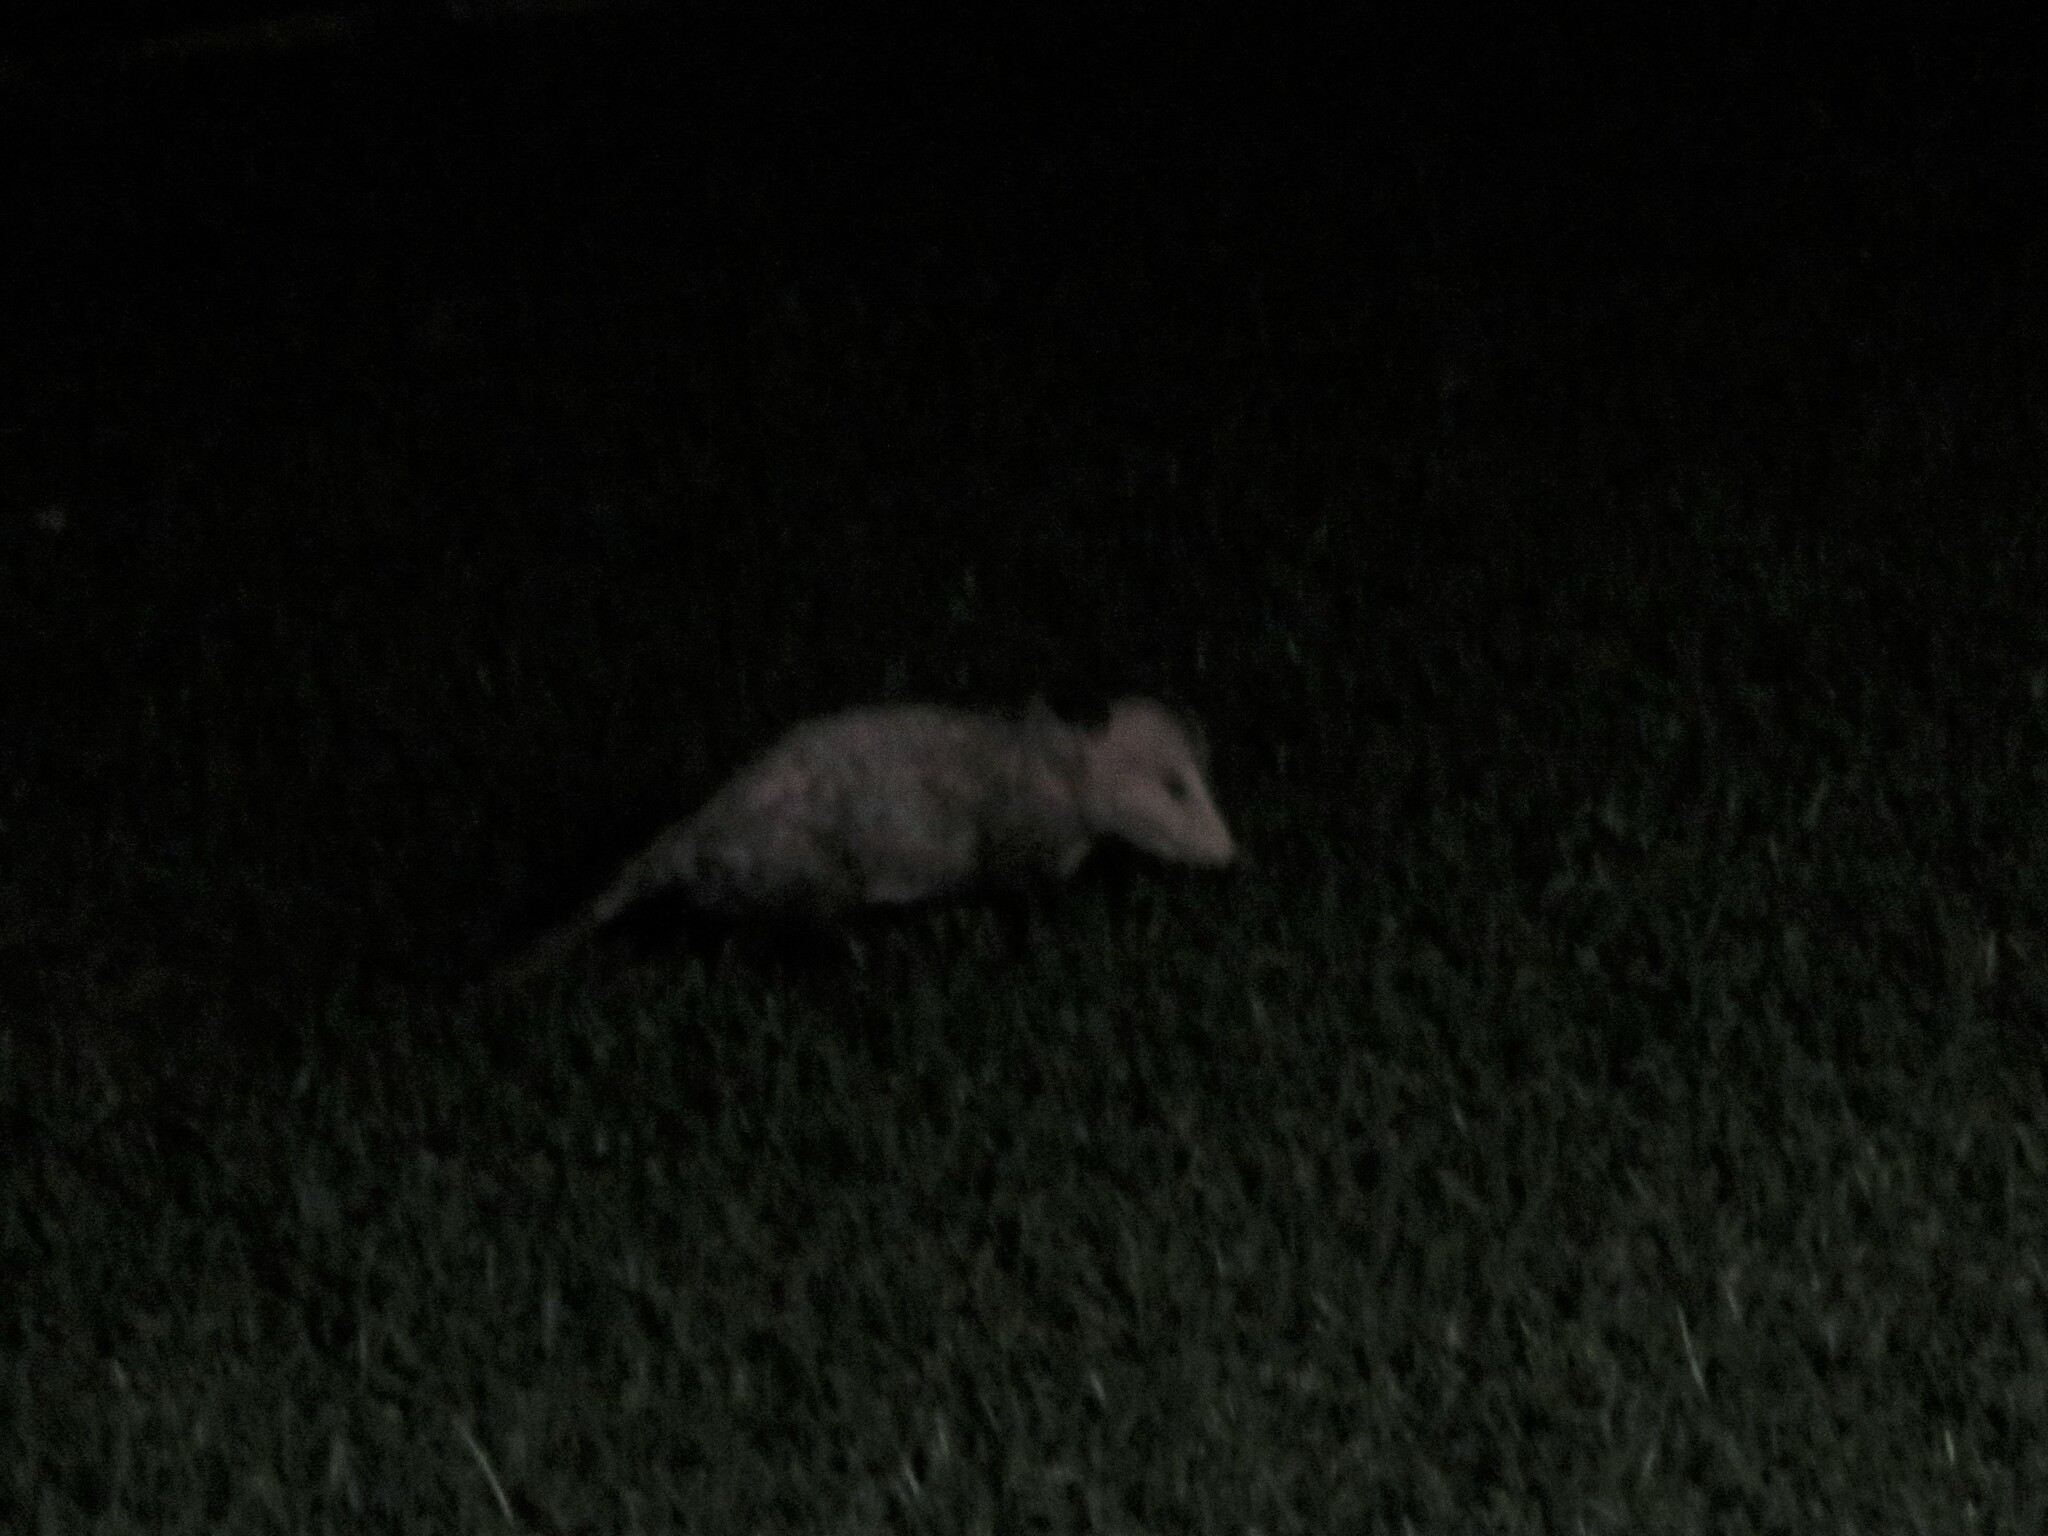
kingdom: Animalia
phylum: Chordata
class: Mammalia
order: Didelphimorphia
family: Didelphidae
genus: Didelphis
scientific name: Didelphis virginiana
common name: Virginia opossum
